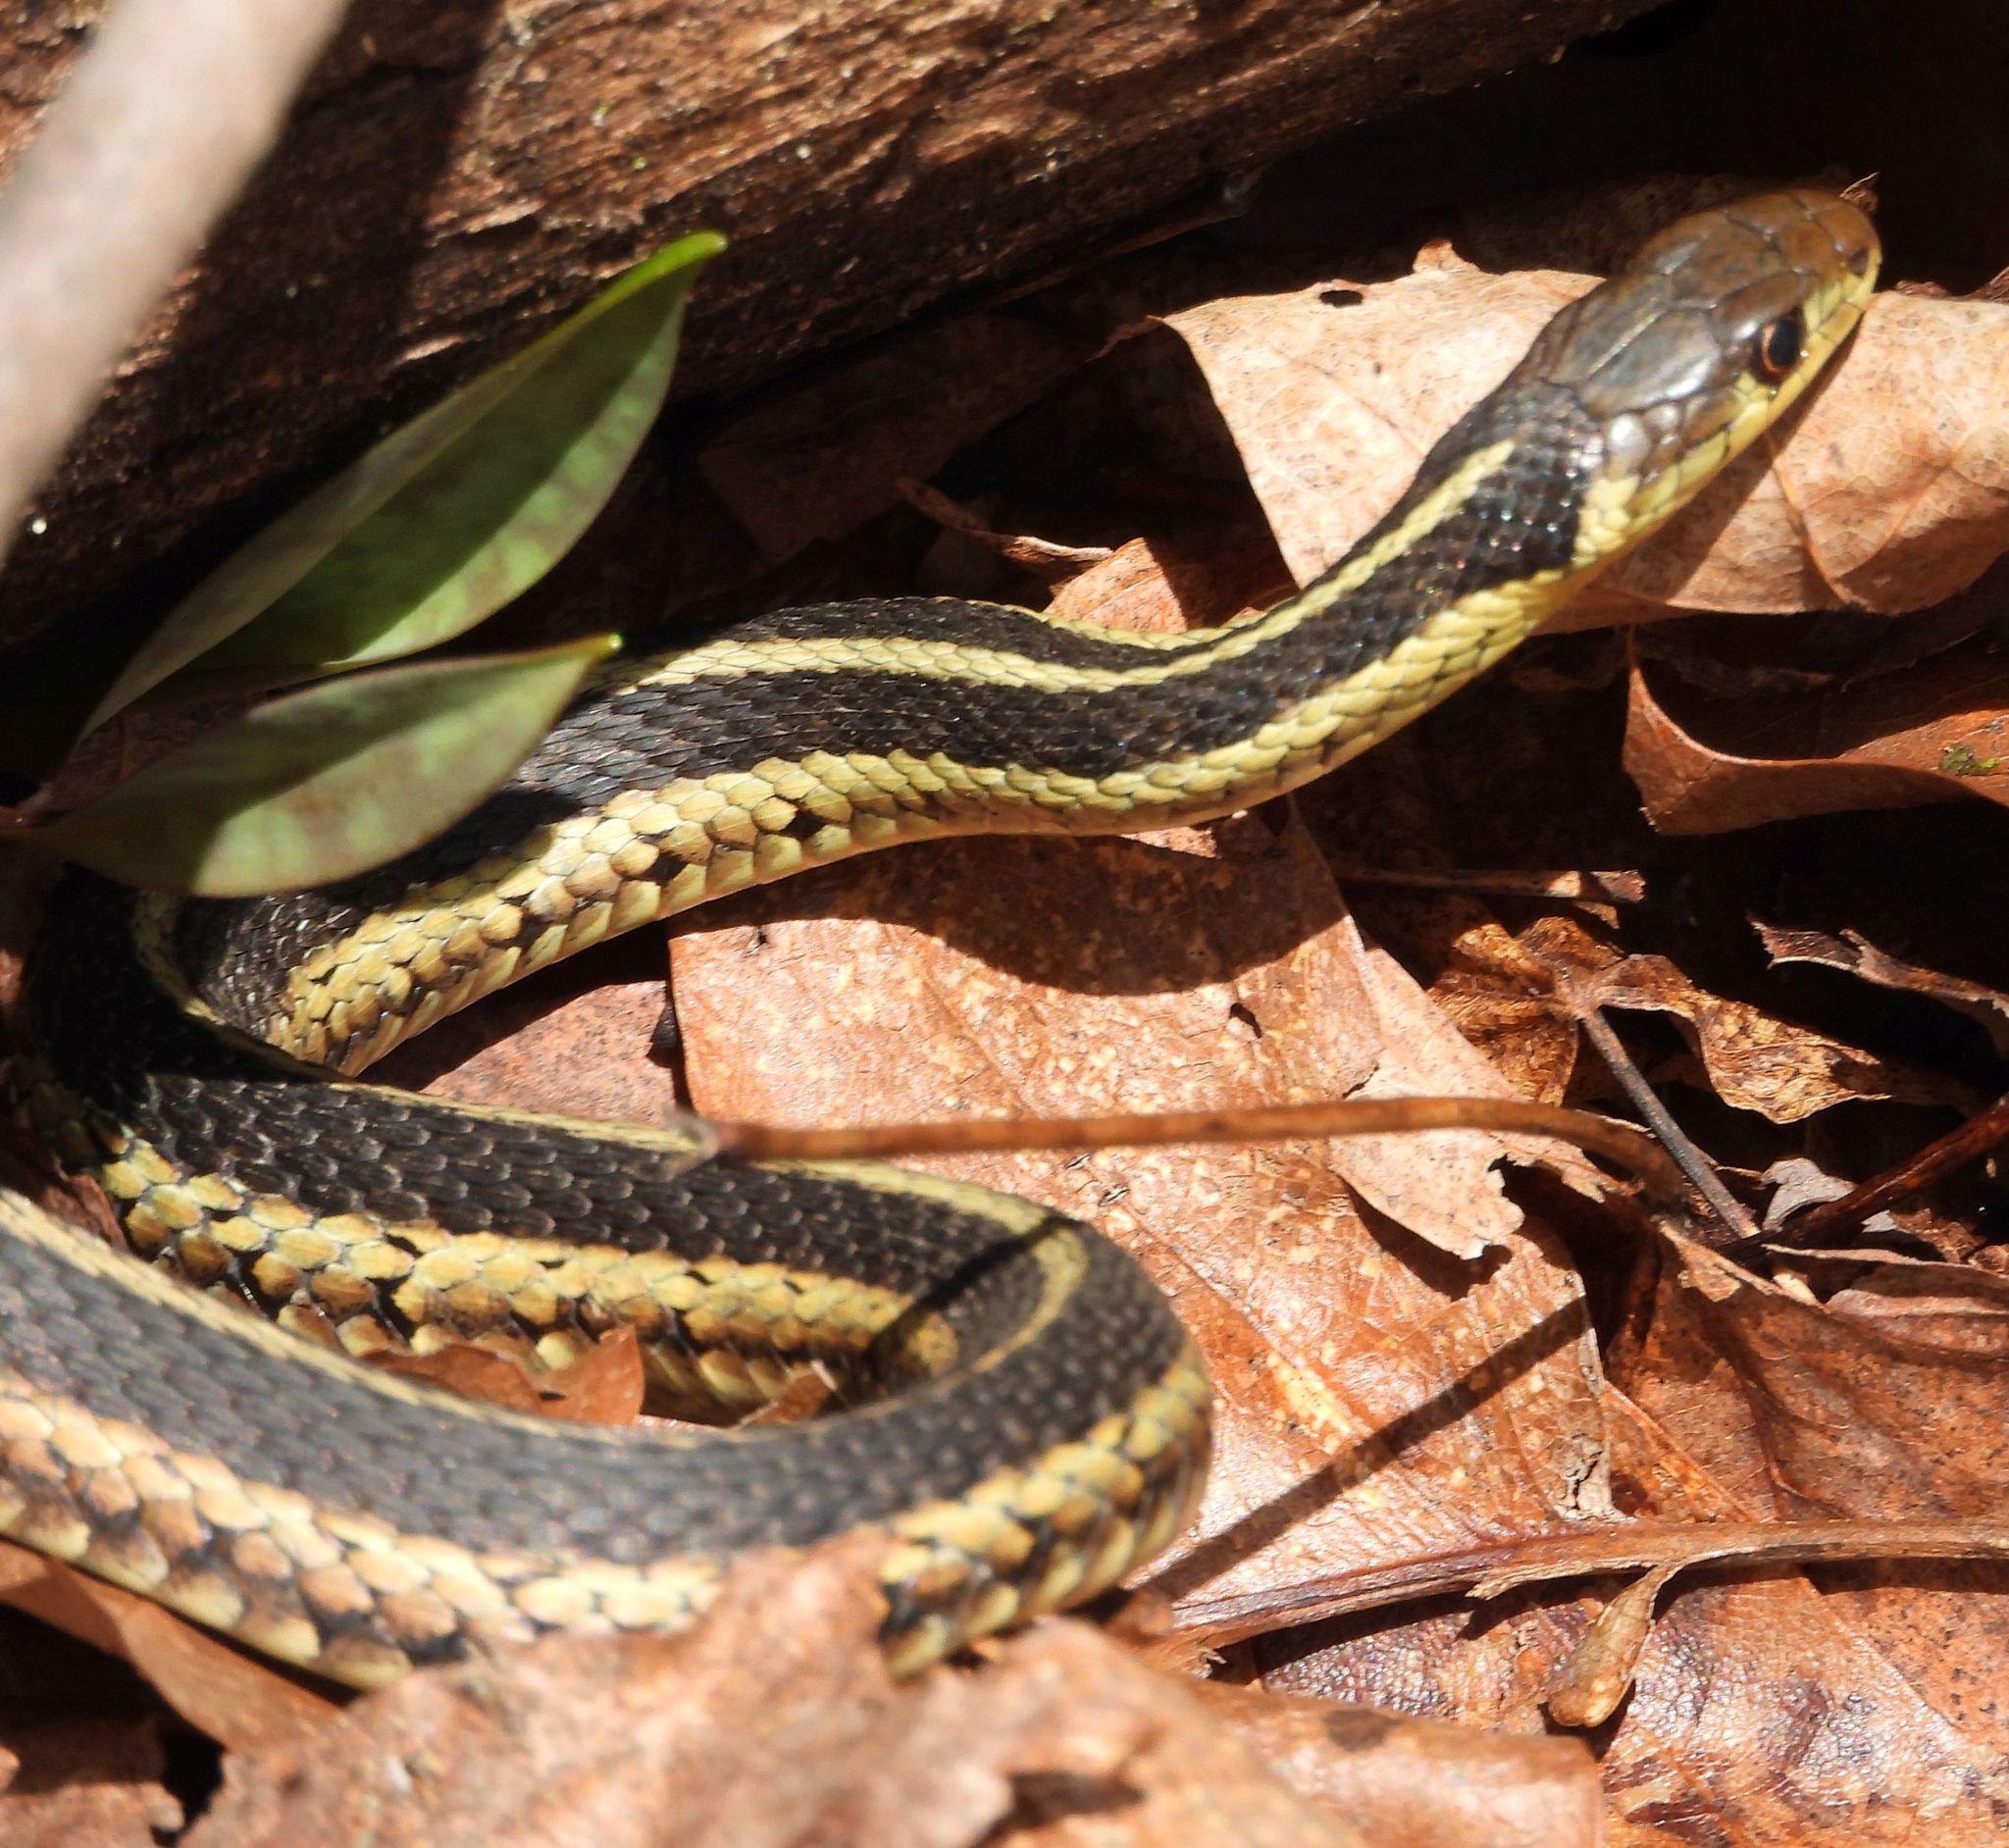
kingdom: Animalia
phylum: Chordata
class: Squamata
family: Colubridae
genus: Thamnophis
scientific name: Thamnophis sirtalis
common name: Common garter snake
